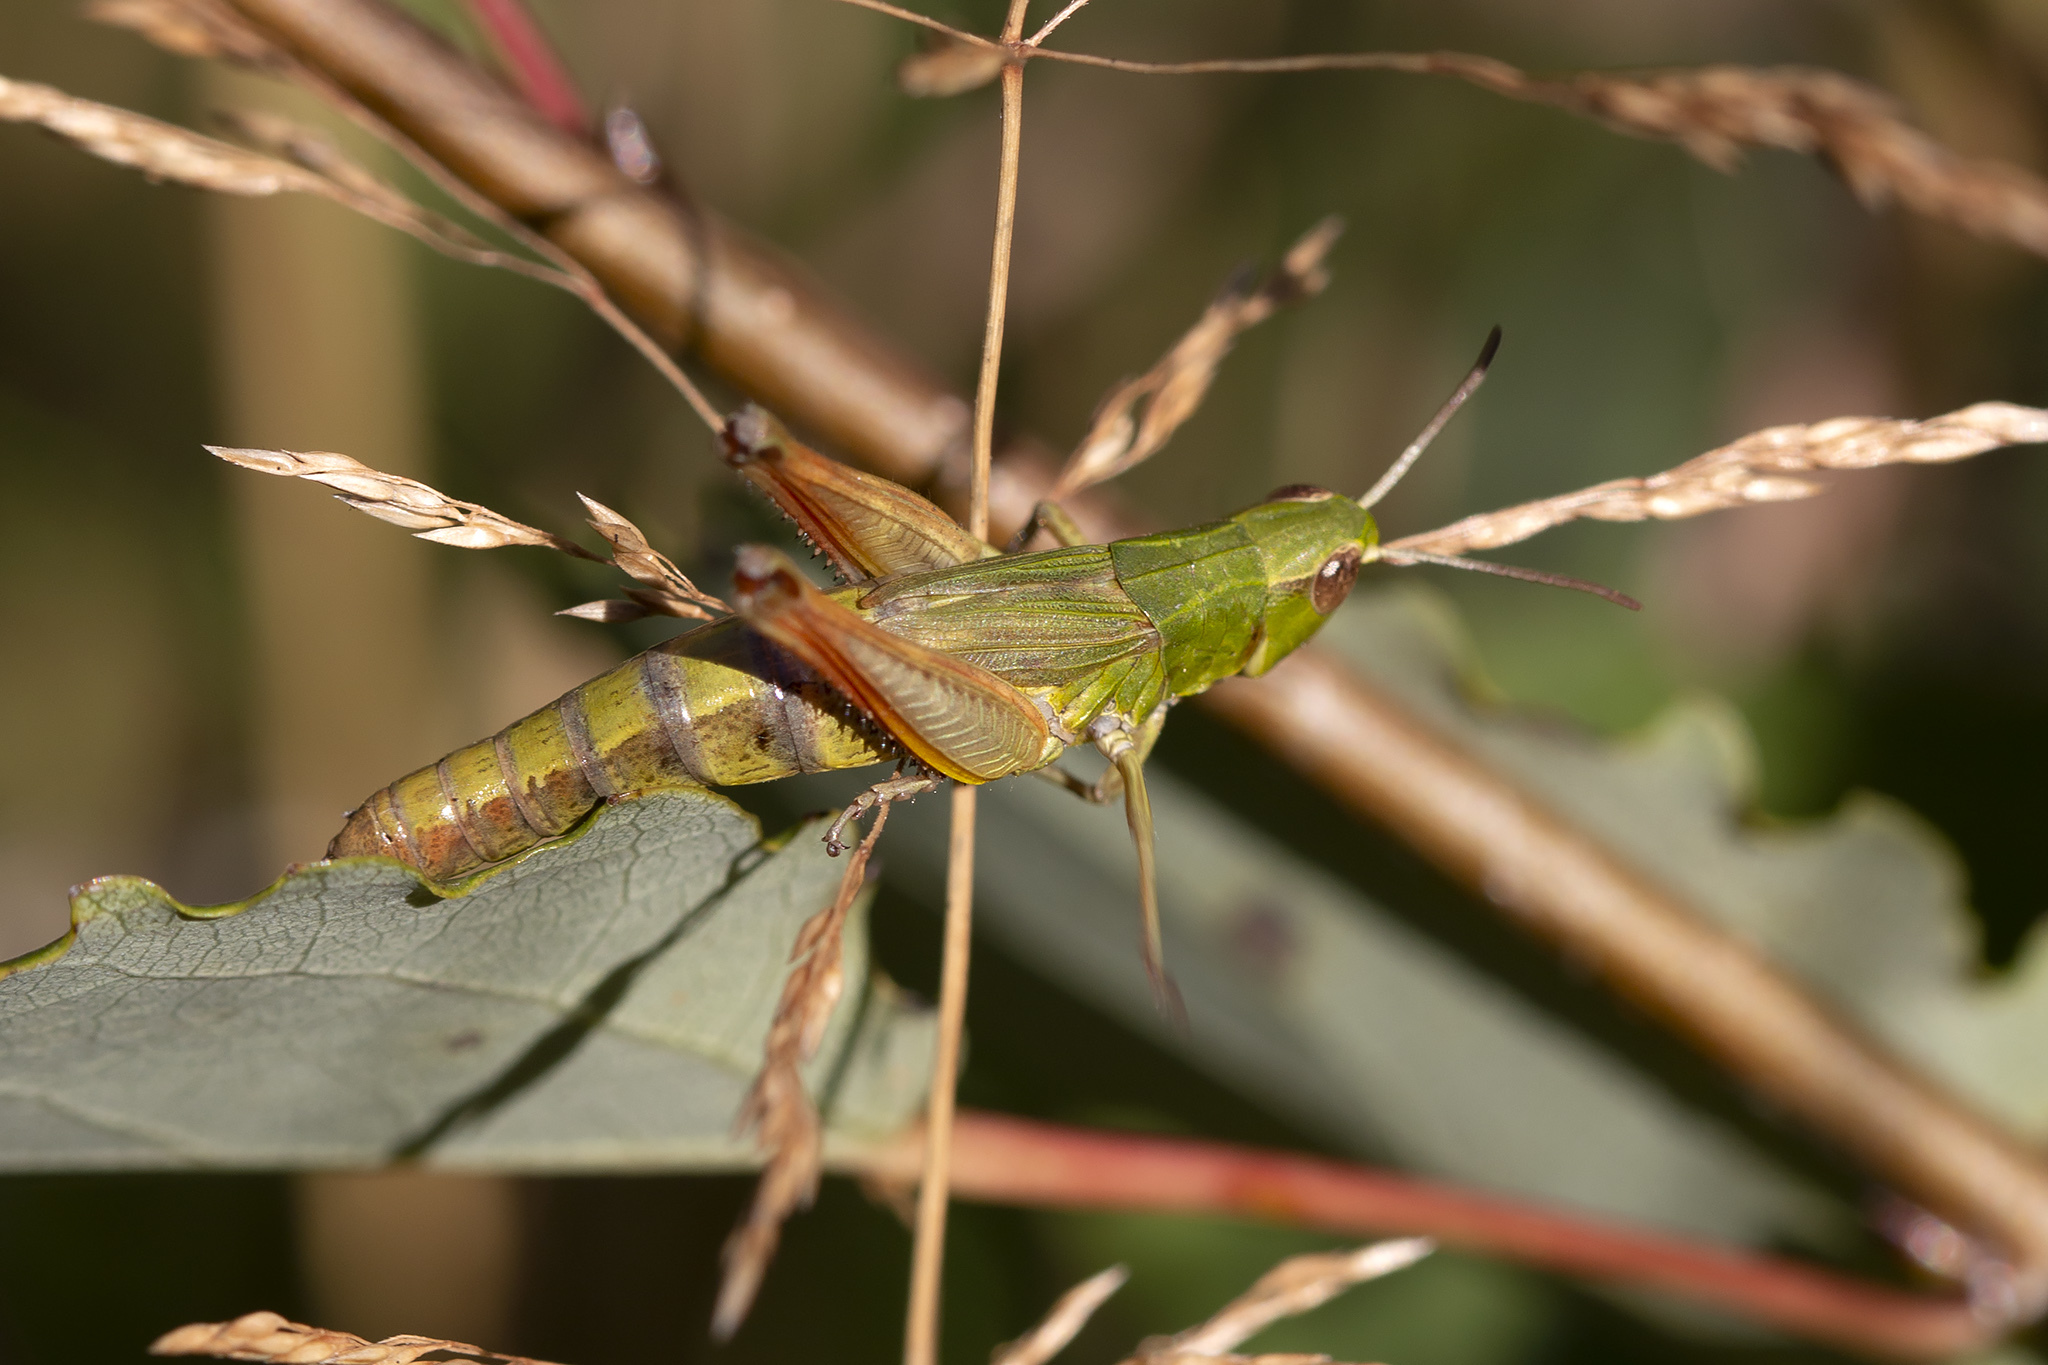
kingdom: Animalia
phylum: Arthropoda
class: Insecta
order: Orthoptera
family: Acrididae
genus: Pseudochorthippus
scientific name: Pseudochorthippus parallelus
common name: Meadow grasshopper
